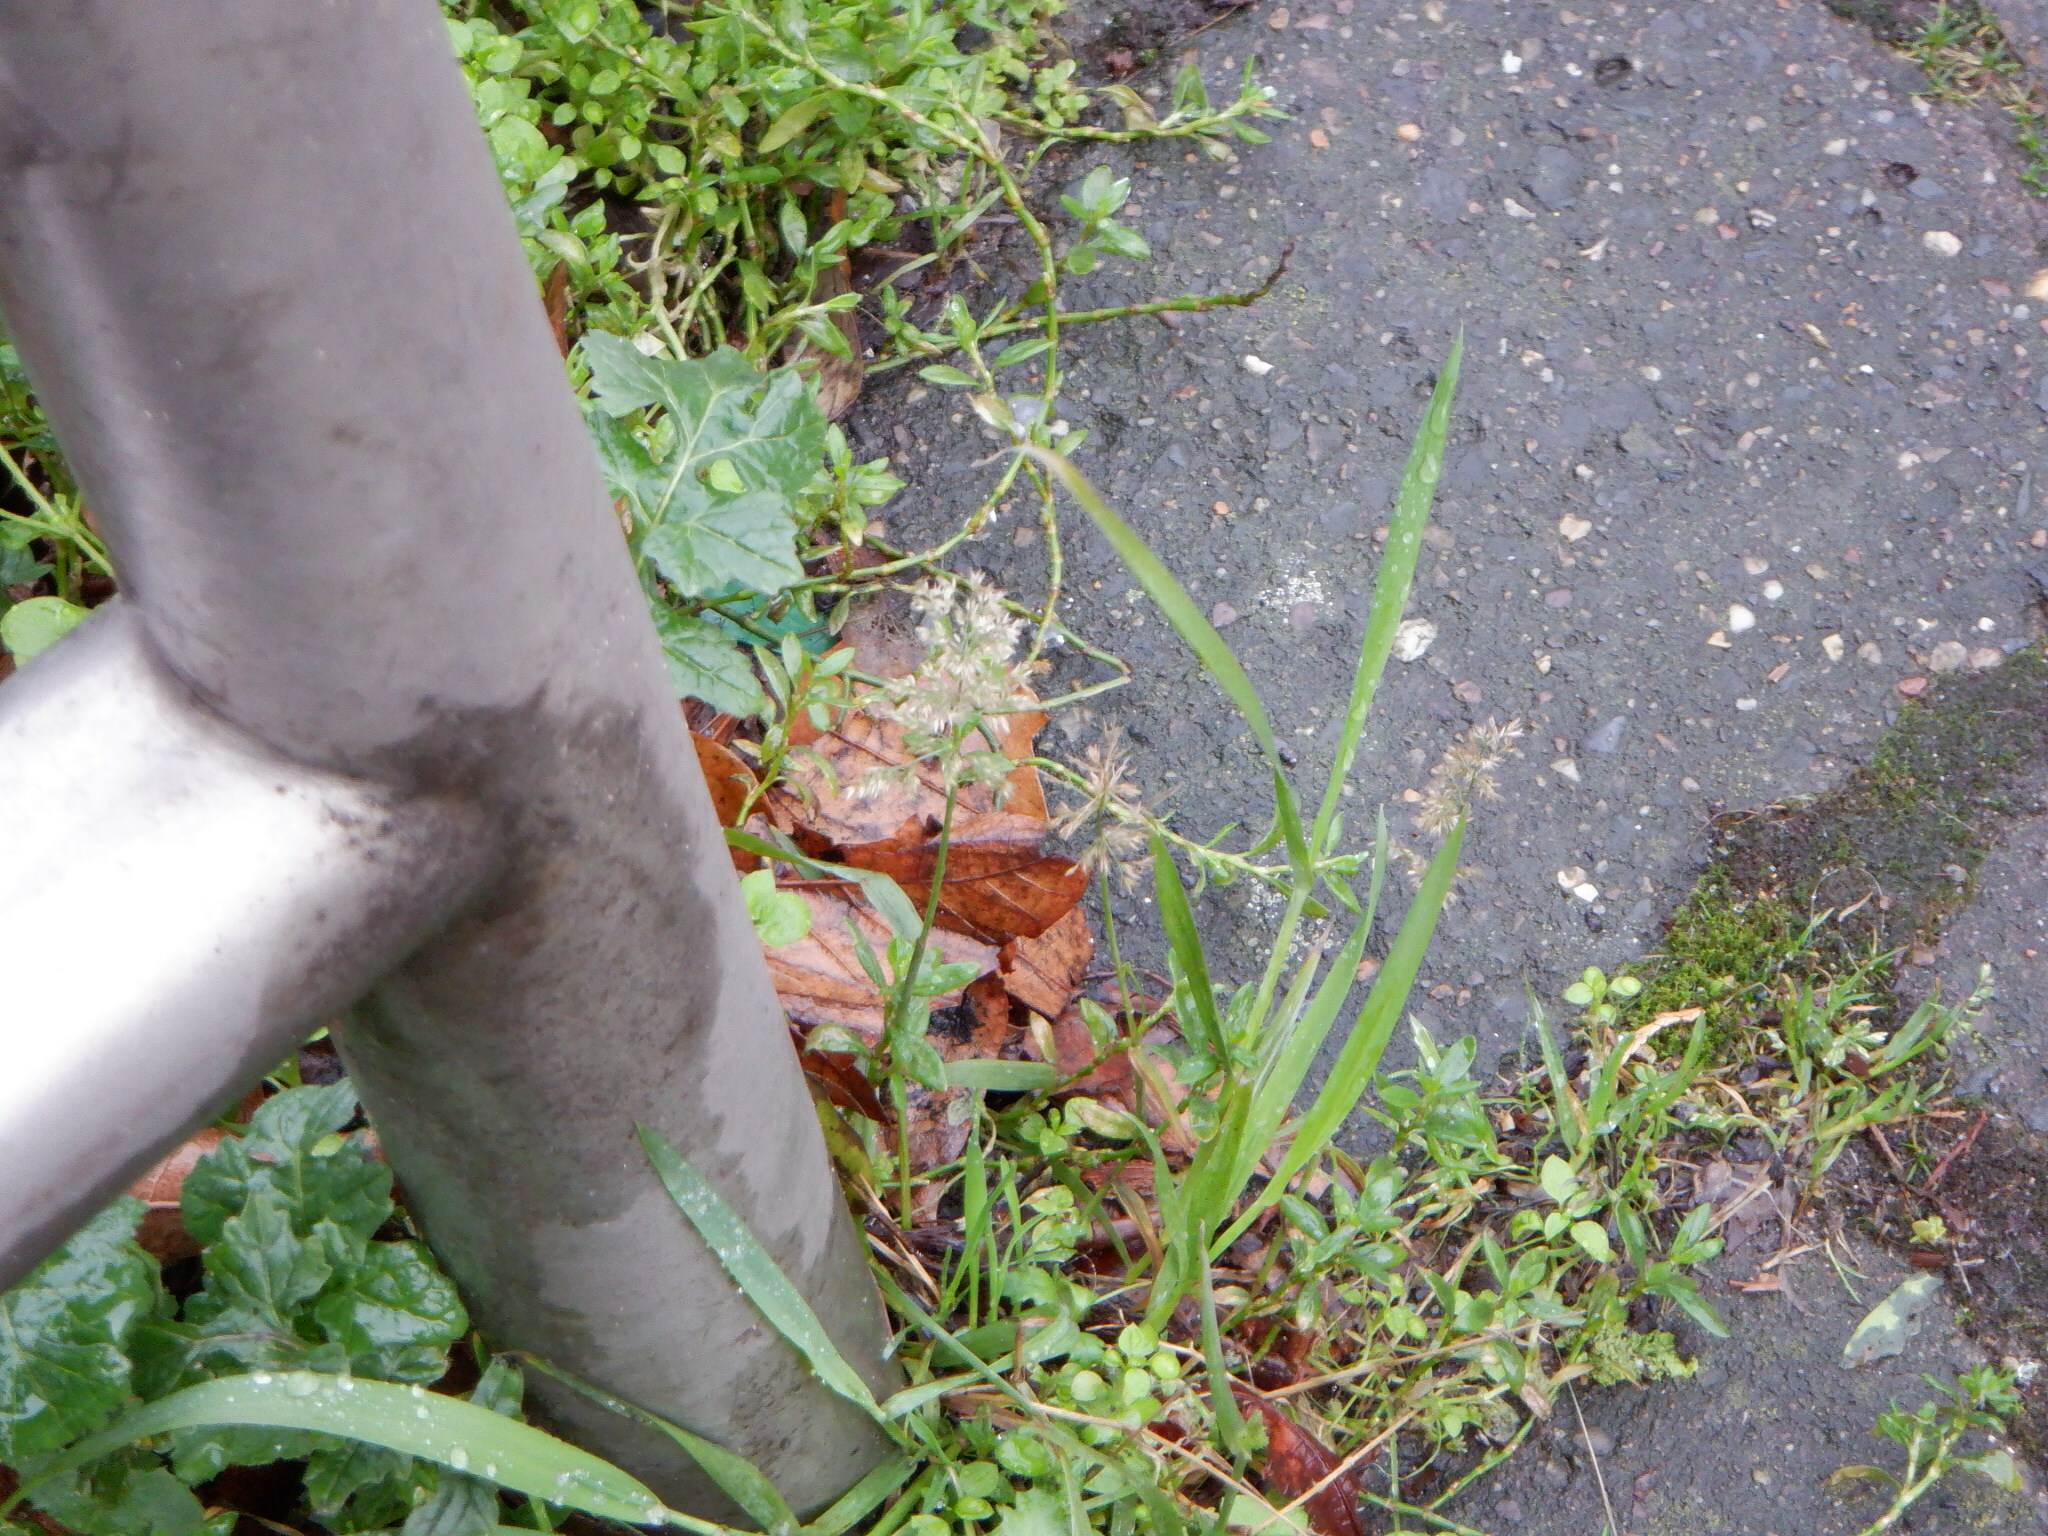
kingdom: Plantae
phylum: Tracheophyta
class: Liliopsida
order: Poales
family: Poaceae
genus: Polypogon
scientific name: Polypogon viridis
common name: Water bent
